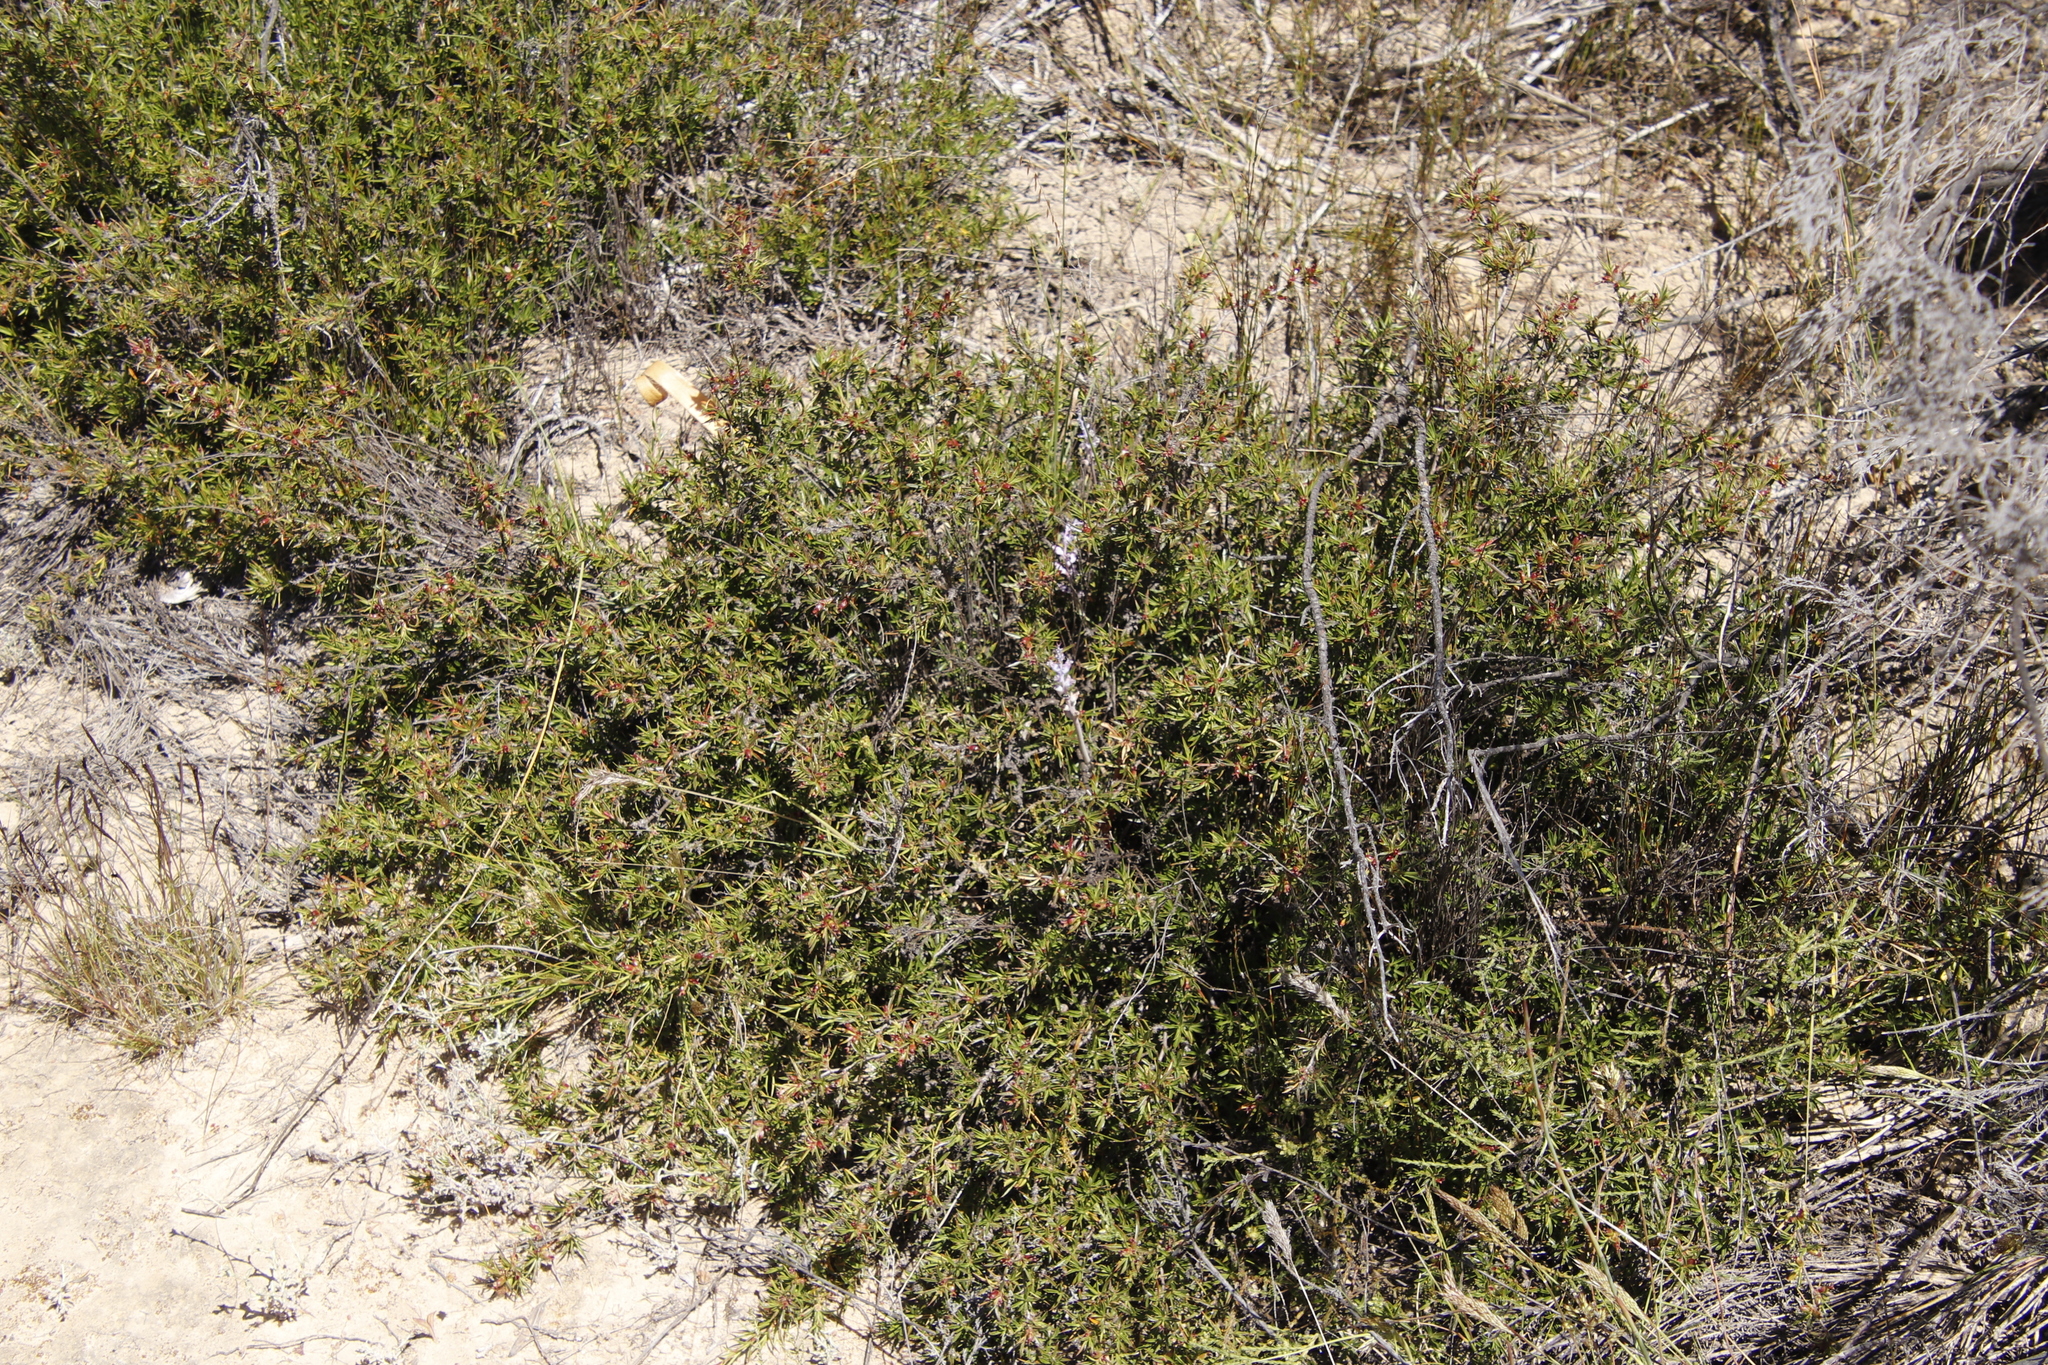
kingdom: Plantae
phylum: Tracheophyta
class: Liliopsida
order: Asparagales
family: Asparagaceae
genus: Lachenalia
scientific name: Lachenalia suaveolens
